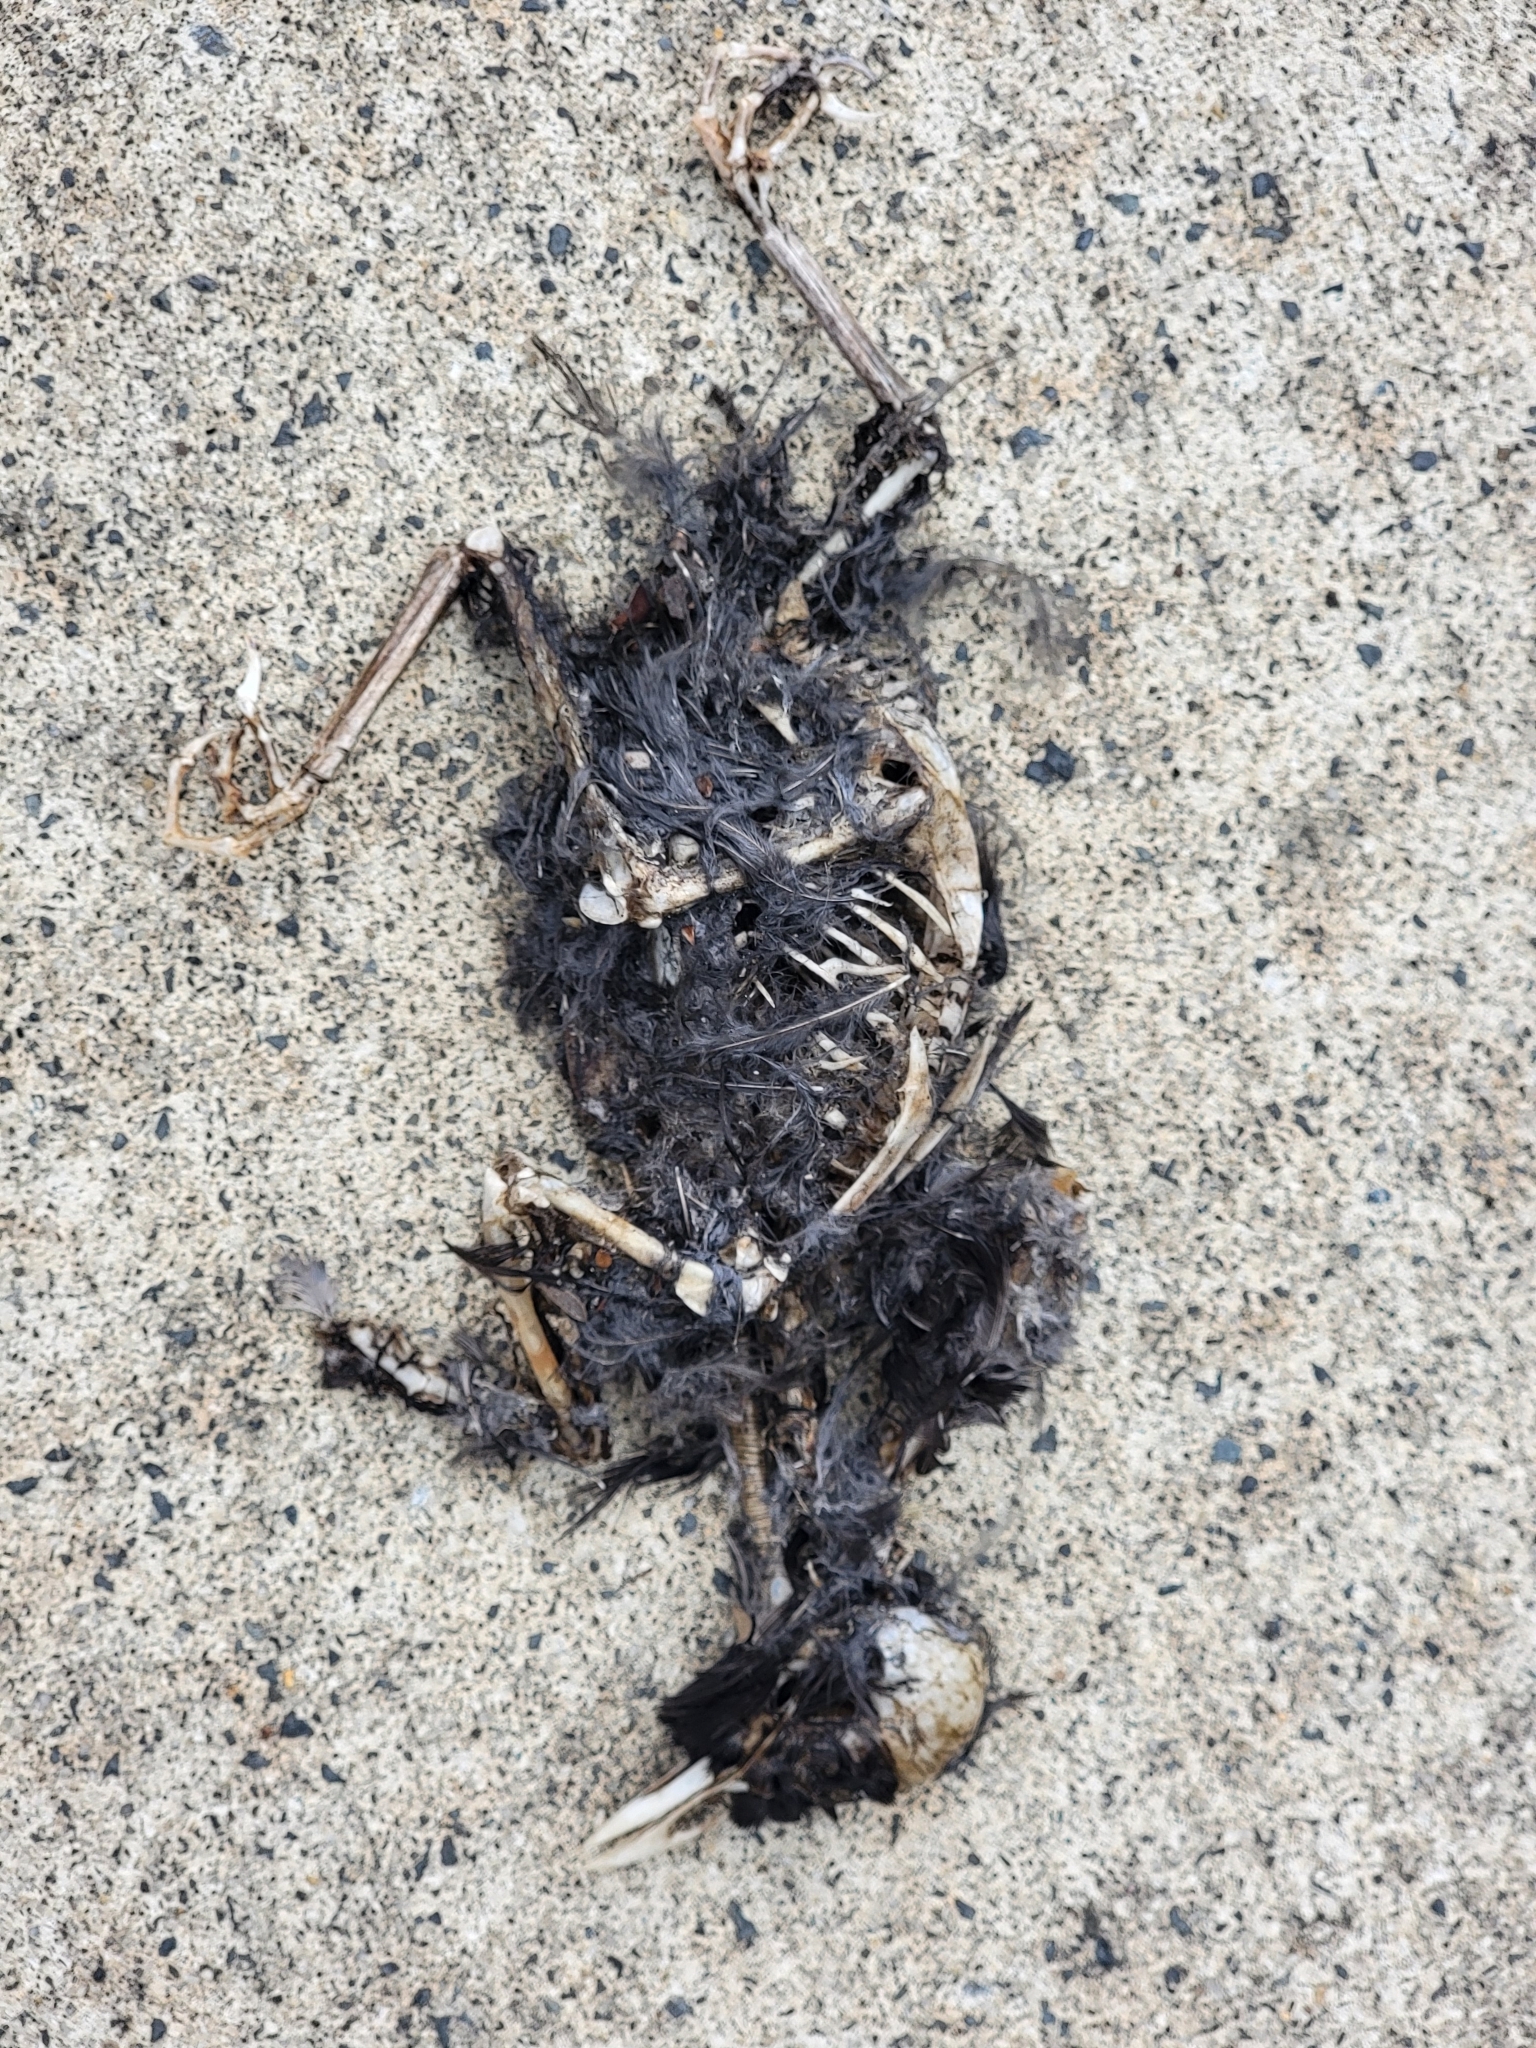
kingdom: Animalia
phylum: Chordata
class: Aves
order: Passeriformes
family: Turdidae
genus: Turdus
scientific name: Turdus merula
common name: Common blackbird
